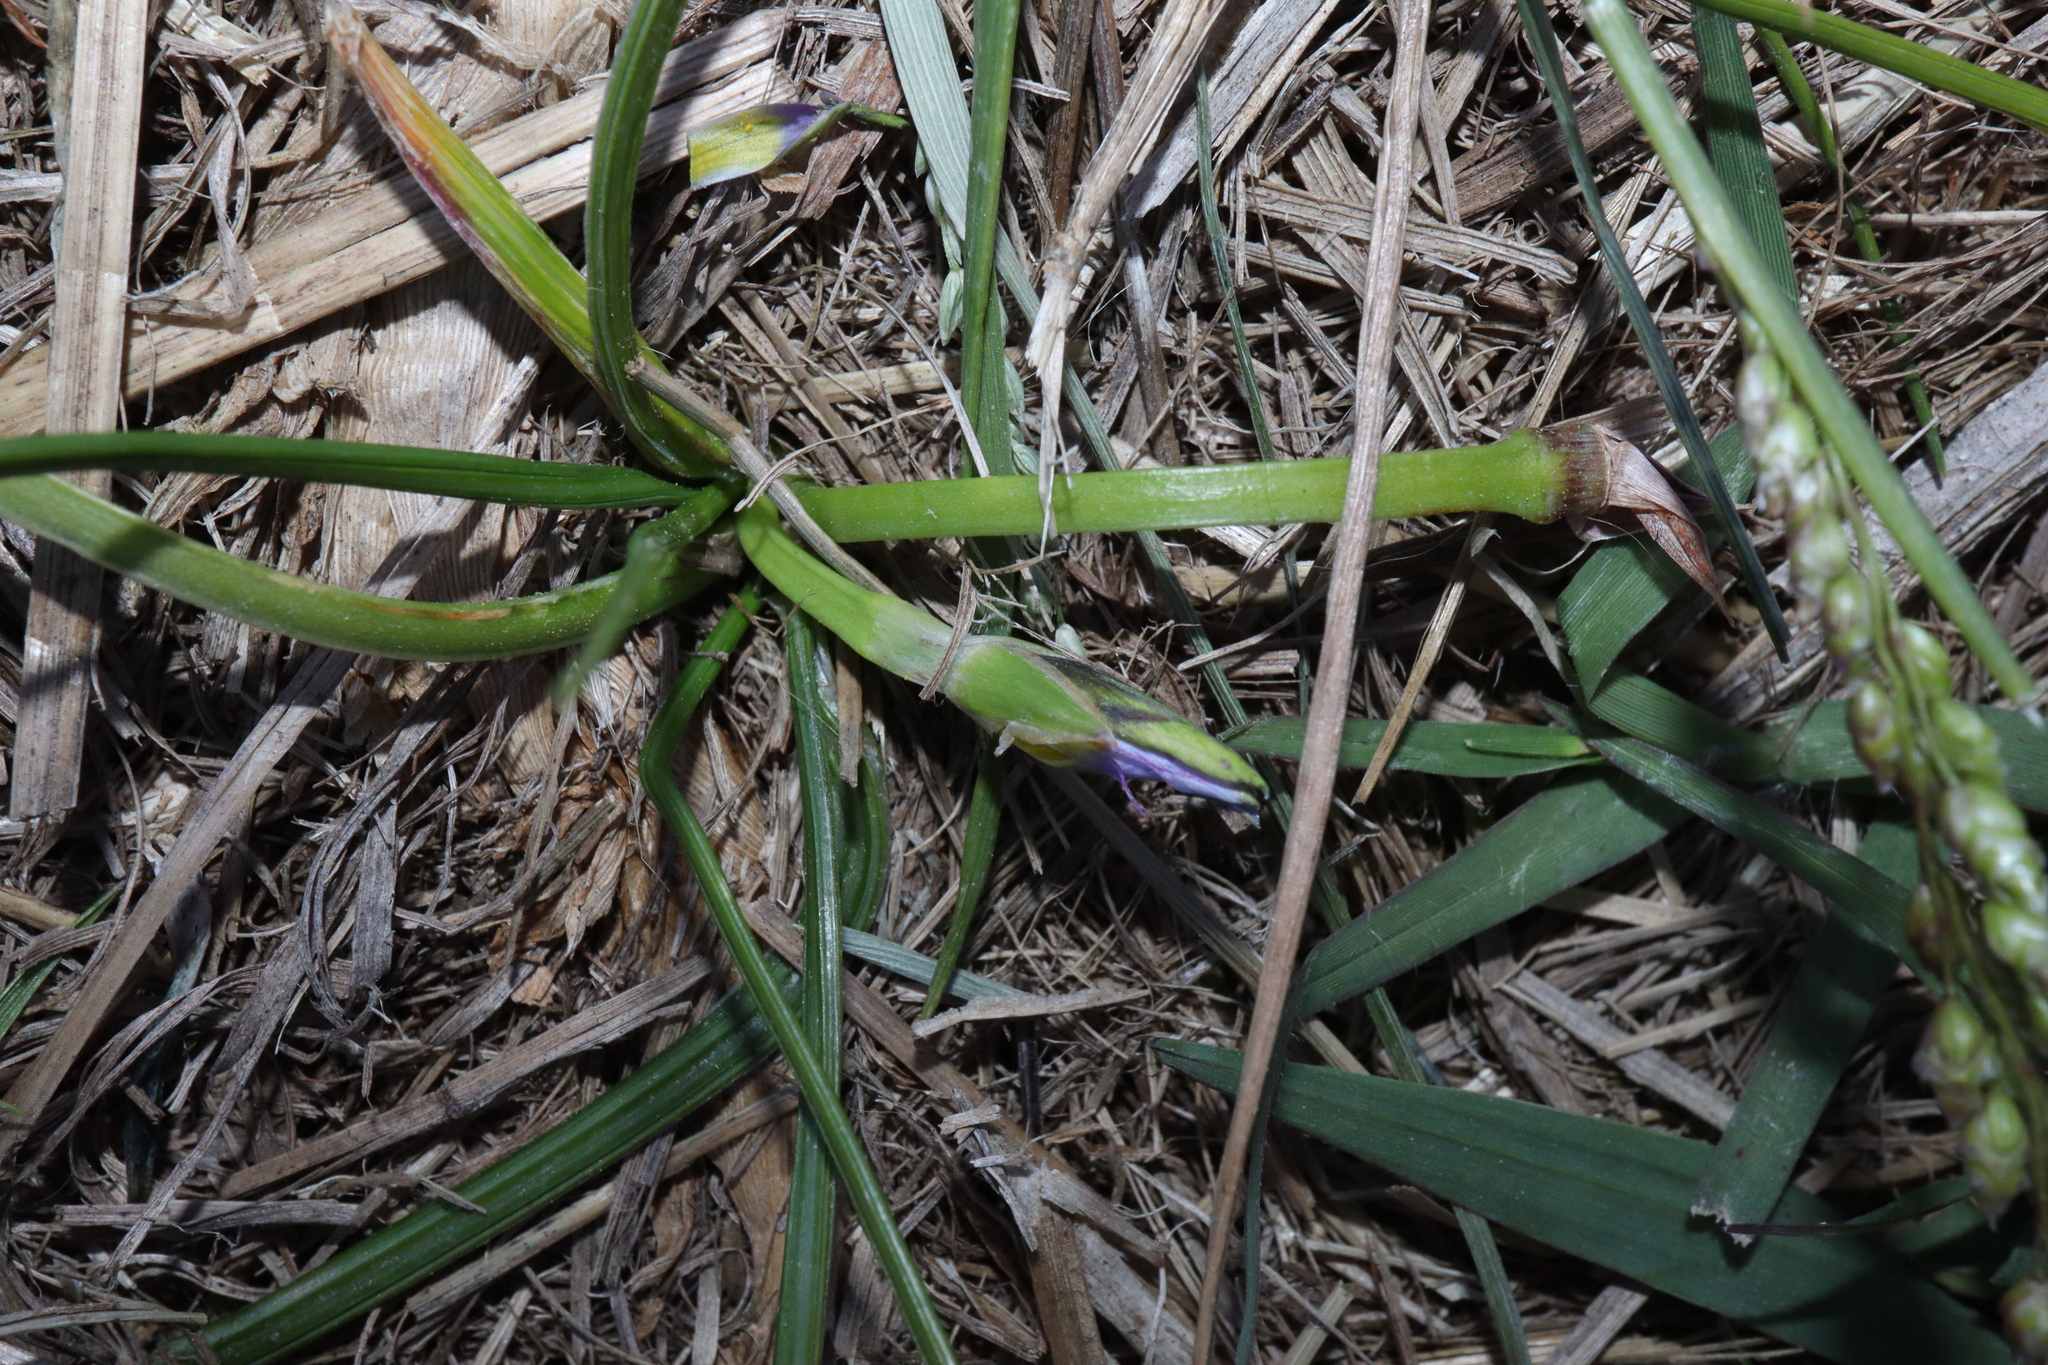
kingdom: Plantae
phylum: Tracheophyta
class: Liliopsida
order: Asparagales
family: Iridaceae
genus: Romulea
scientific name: Romulea rosea
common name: Oniongrass
